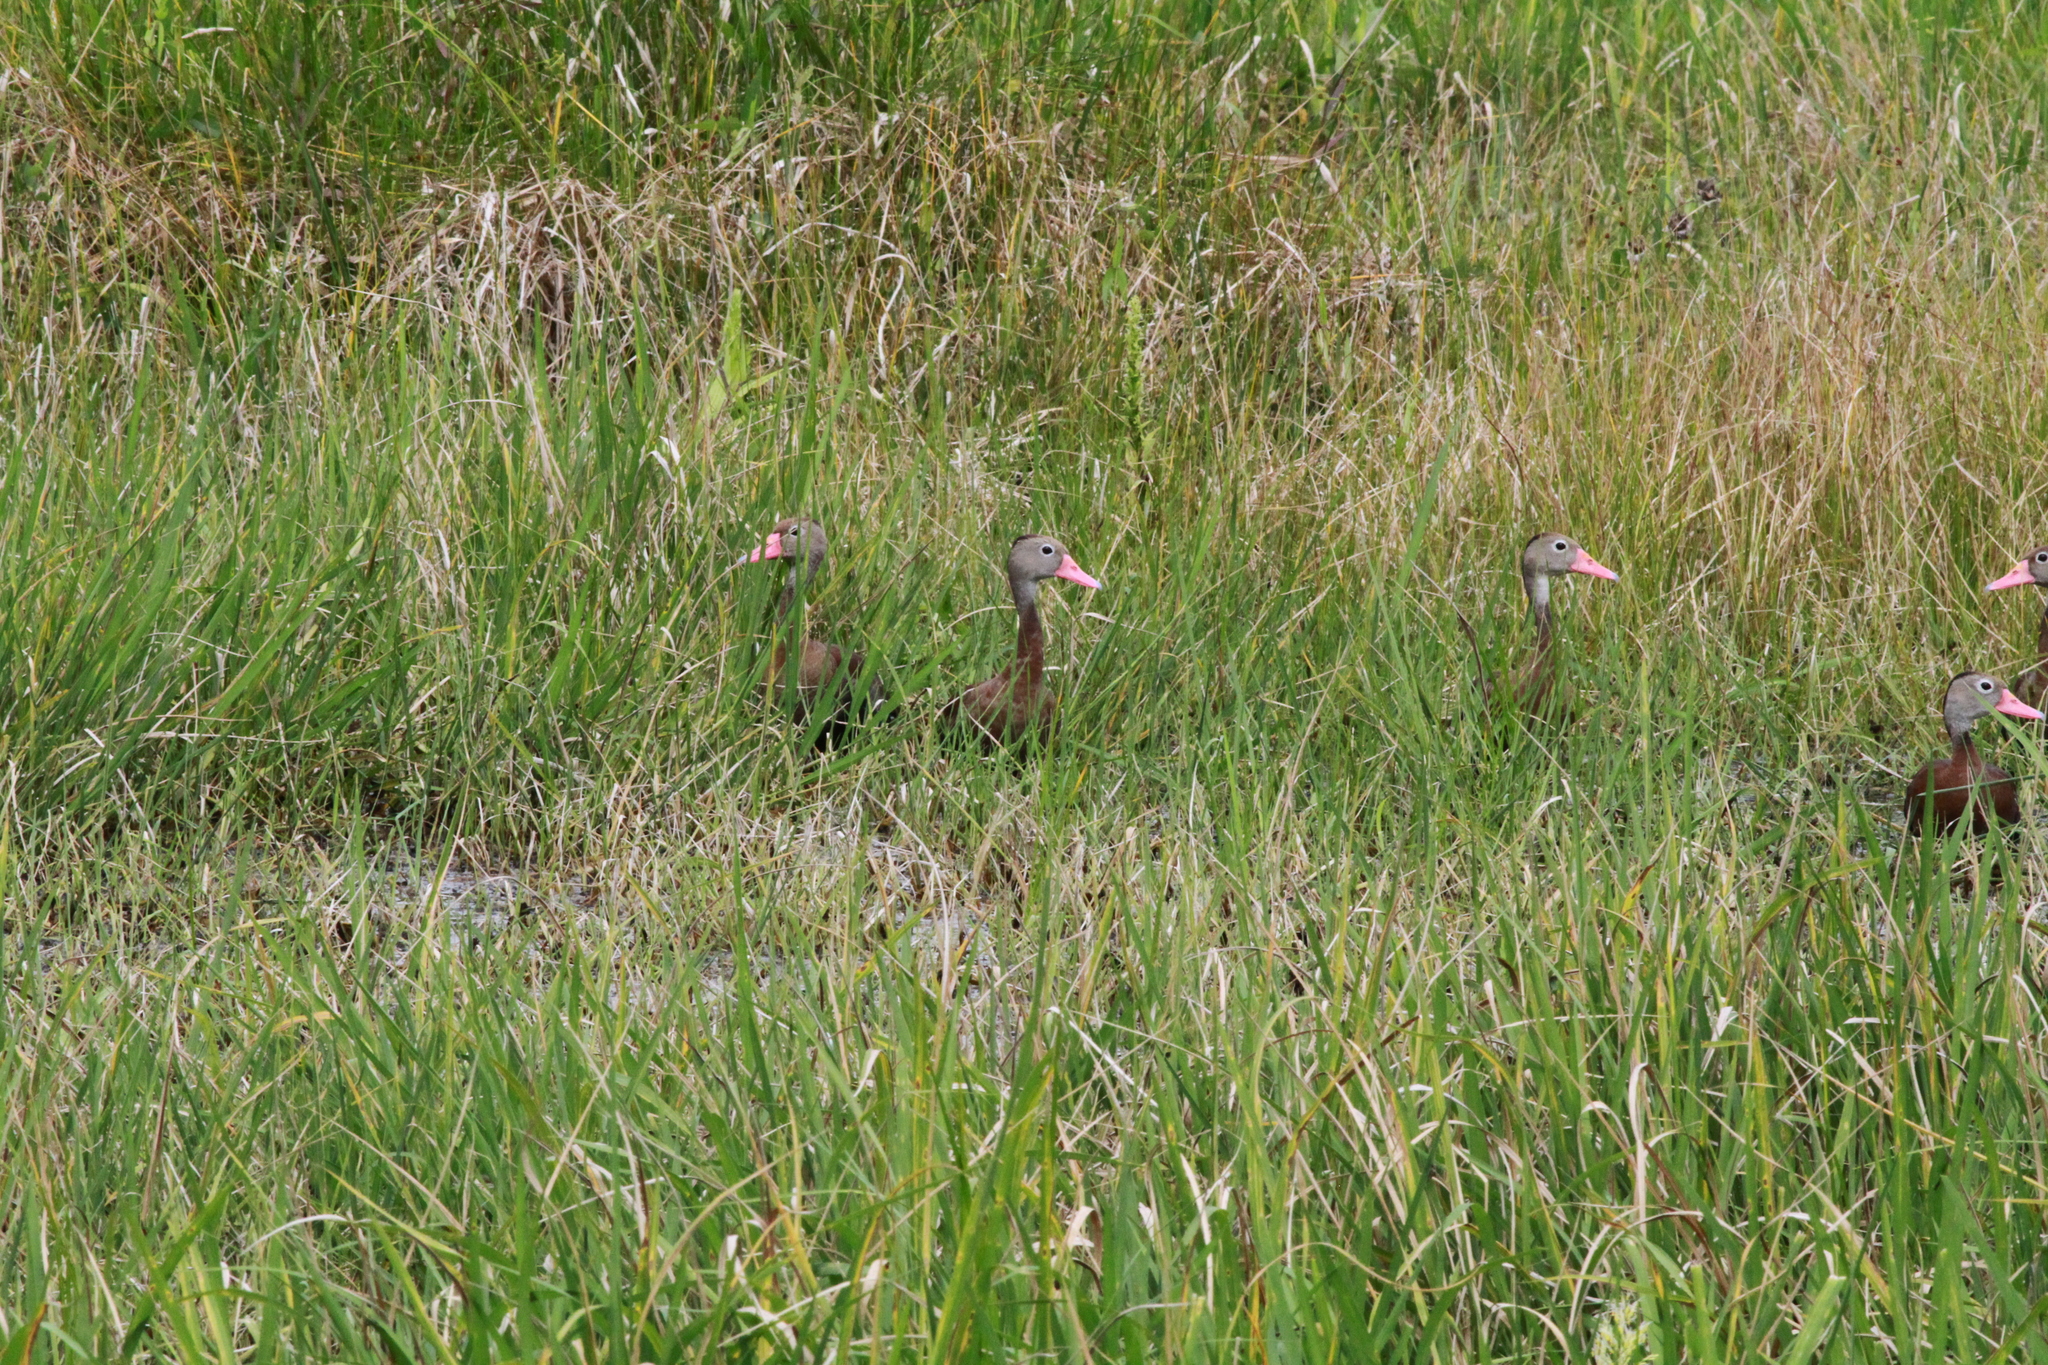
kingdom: Animalia
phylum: Chordata
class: Aves
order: Anseriformes
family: Anatidae
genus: Dendrocygna
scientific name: Dendrocygna autumnalis
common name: Black-bellied whistling duck
